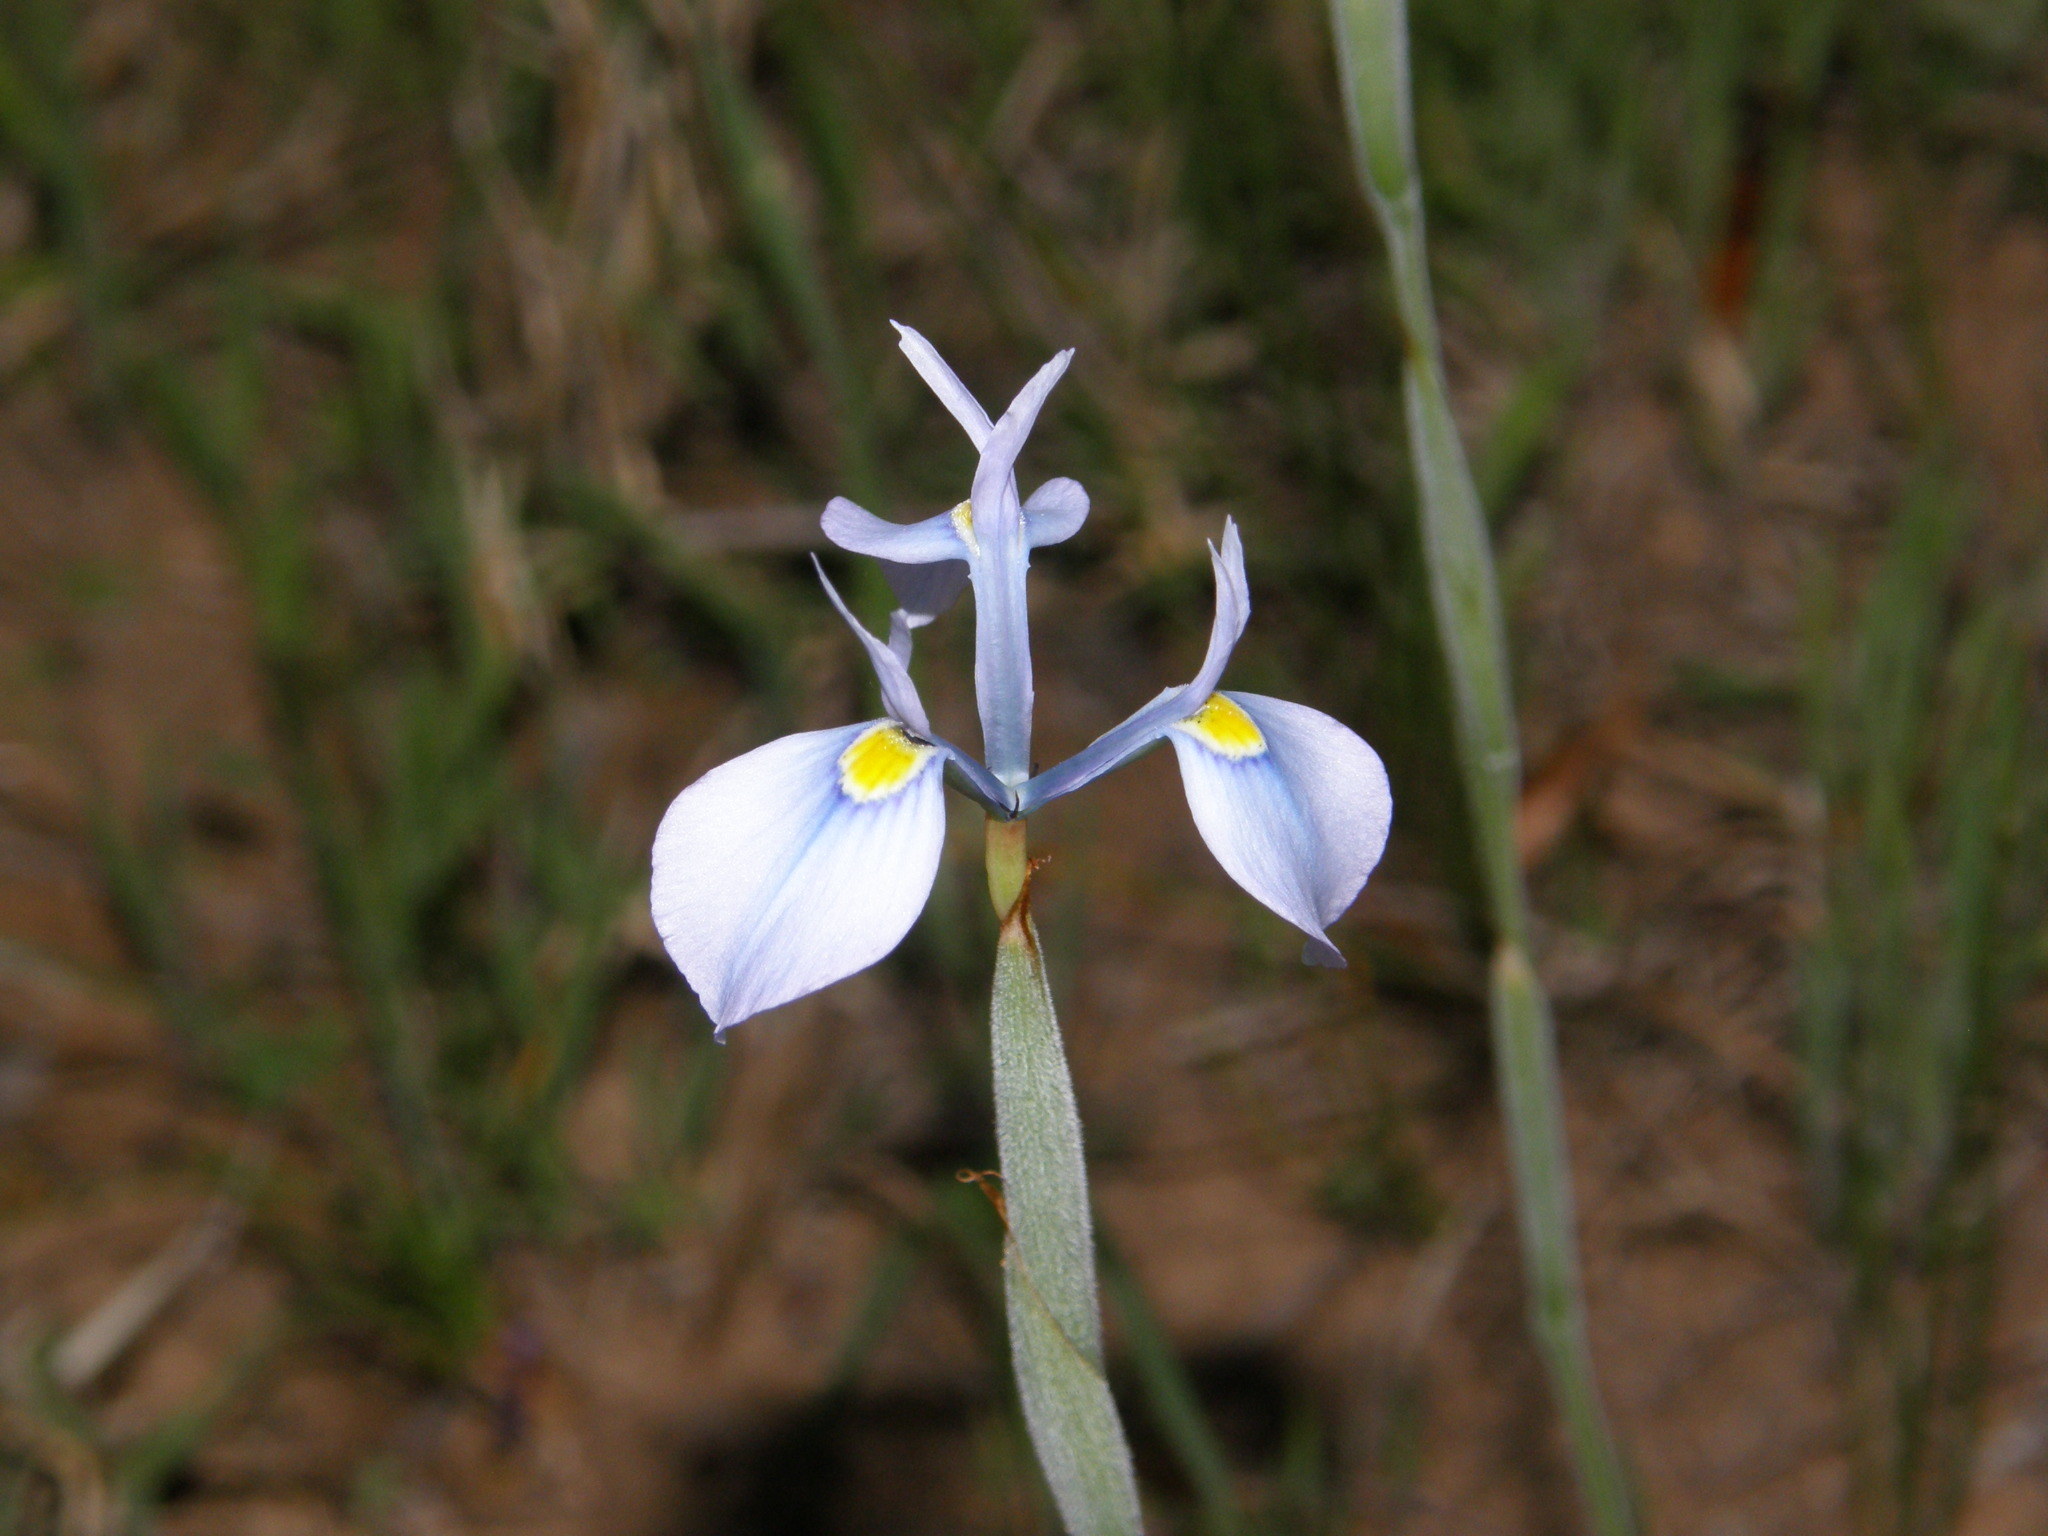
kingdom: Plantae
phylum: Tracheophyta
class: Liliopsida
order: Asparagales
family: Iridaceae
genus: Moraea
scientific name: Moraea tripetala
